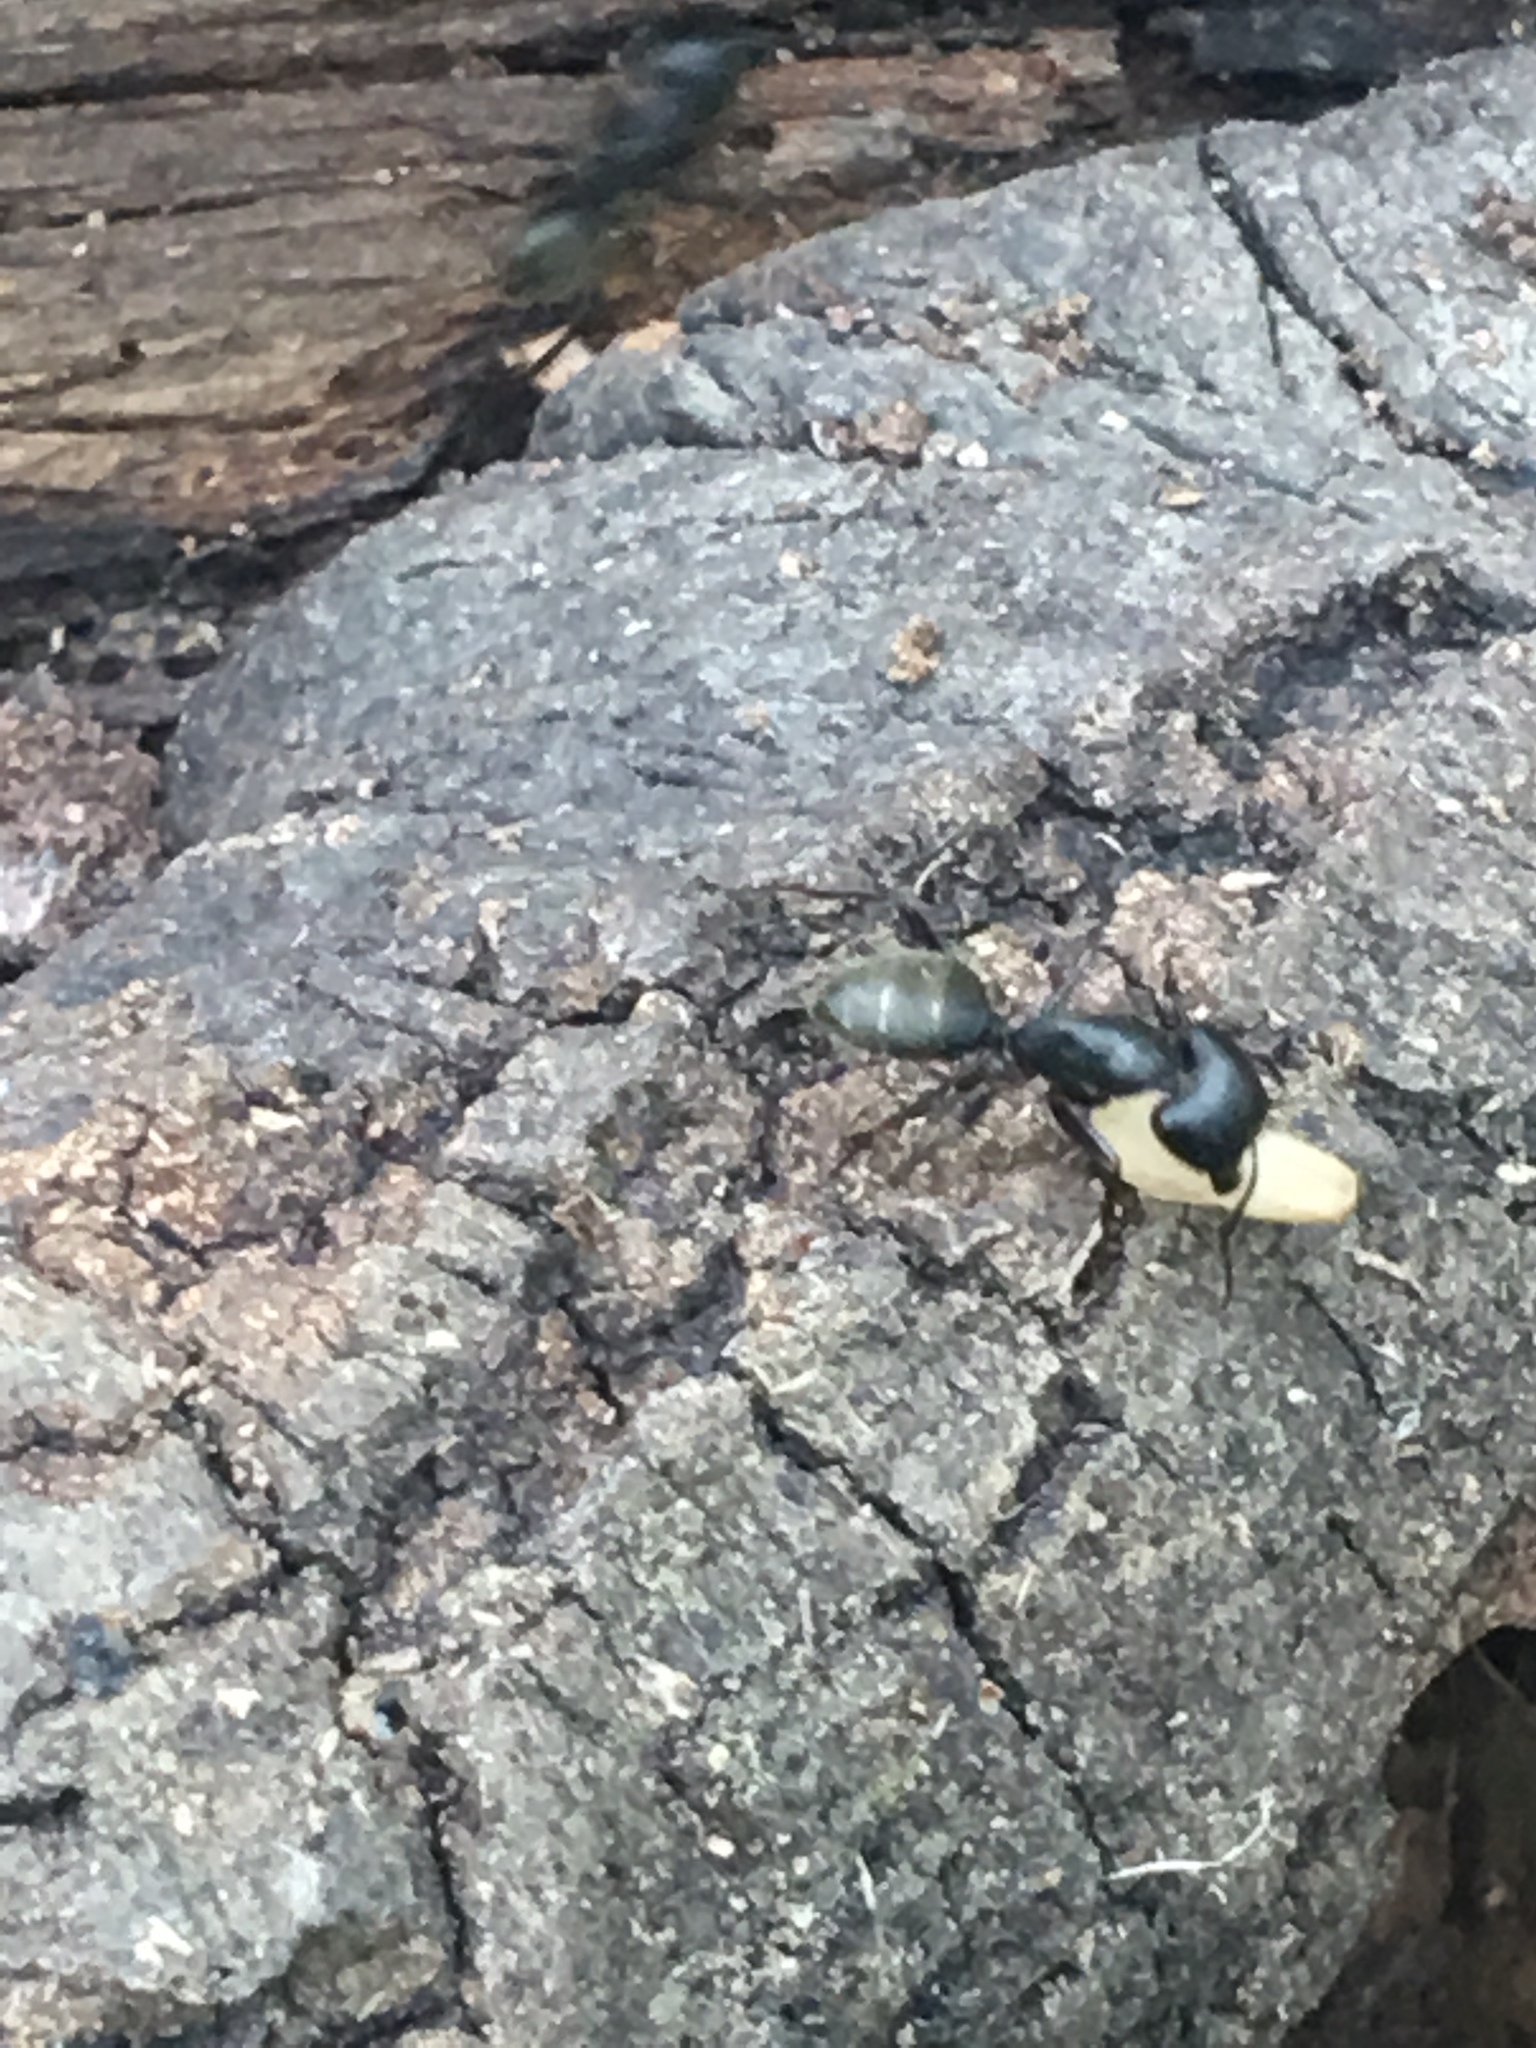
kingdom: Animalia
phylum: Arthropoda
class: Insecta
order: Hymenoptera
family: Formicidae
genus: Camponotus
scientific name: Camponotus pennsylvanicus
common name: Black carpenter ant
